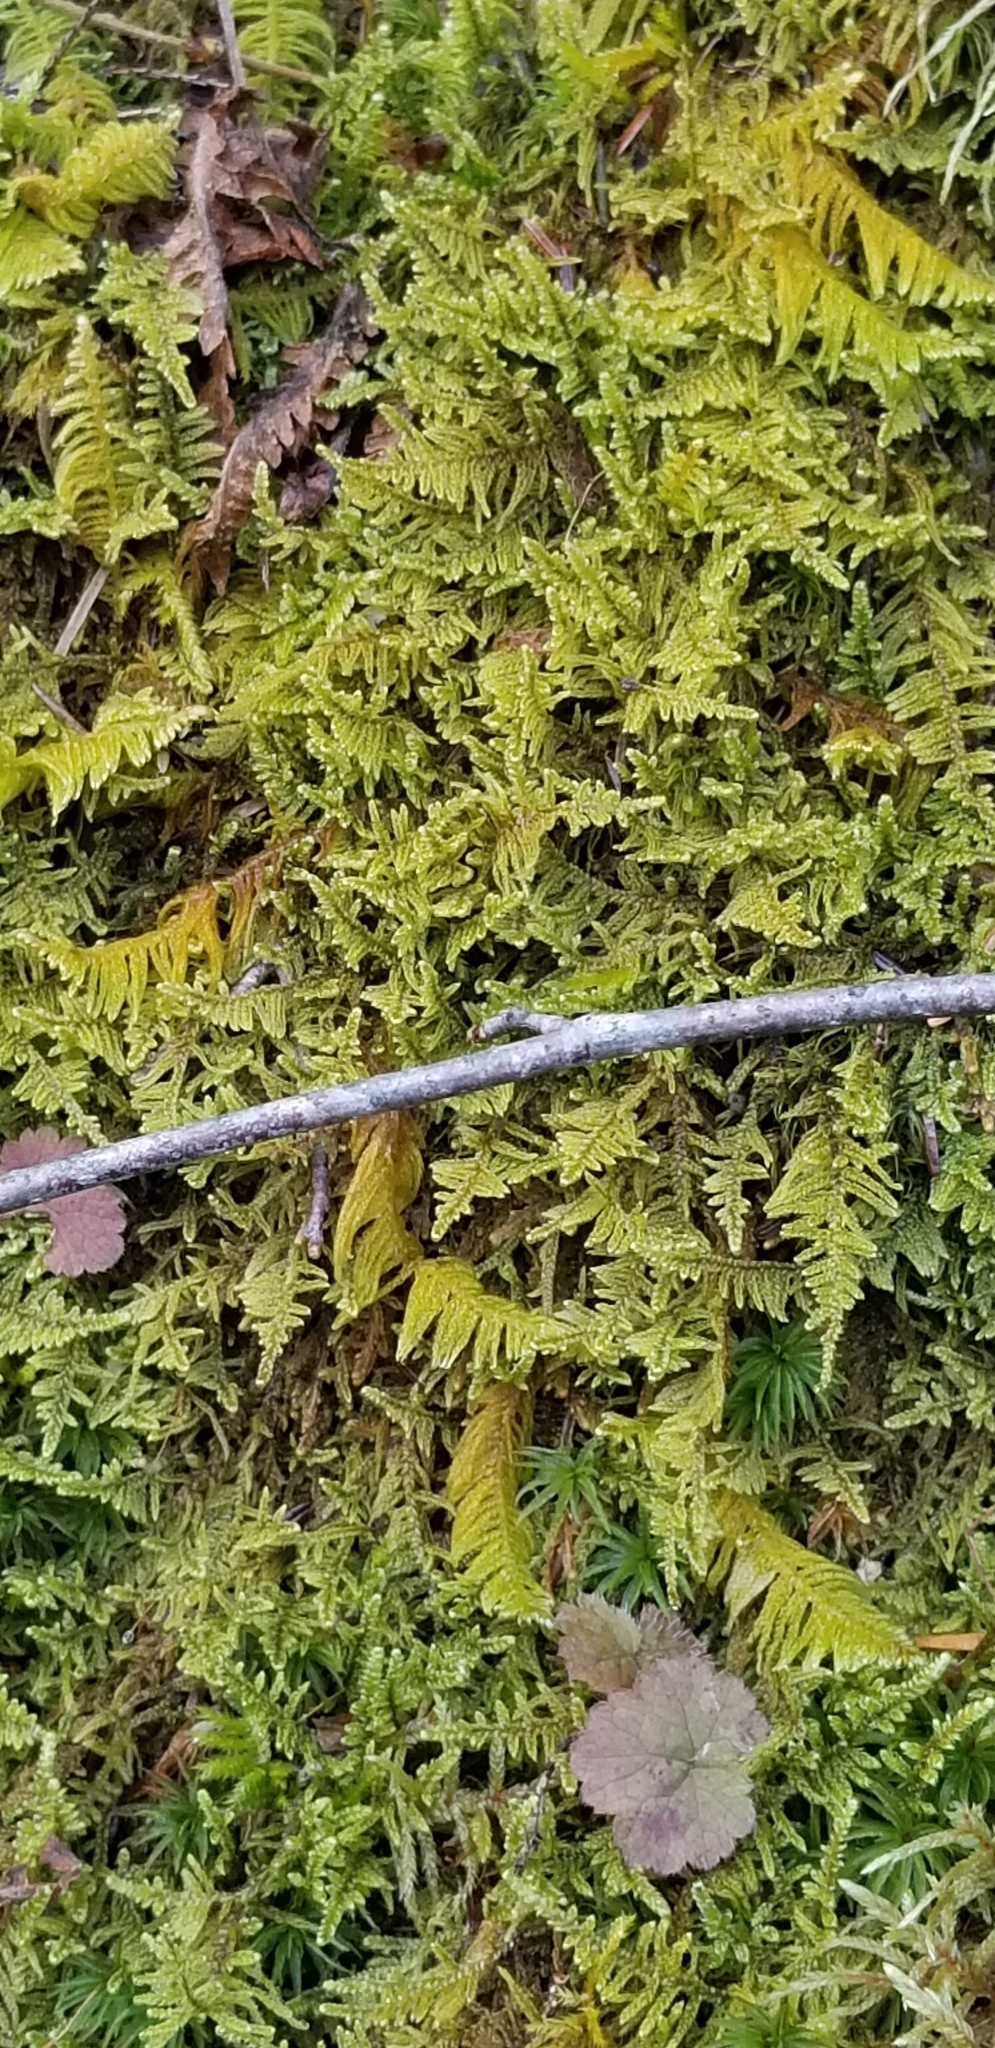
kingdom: Plantae
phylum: Bryophyta
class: Bryopsida
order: Hypnales
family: Callicladiaceae
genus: Callicladium
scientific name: Callicladium imponens
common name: Brocade moss
